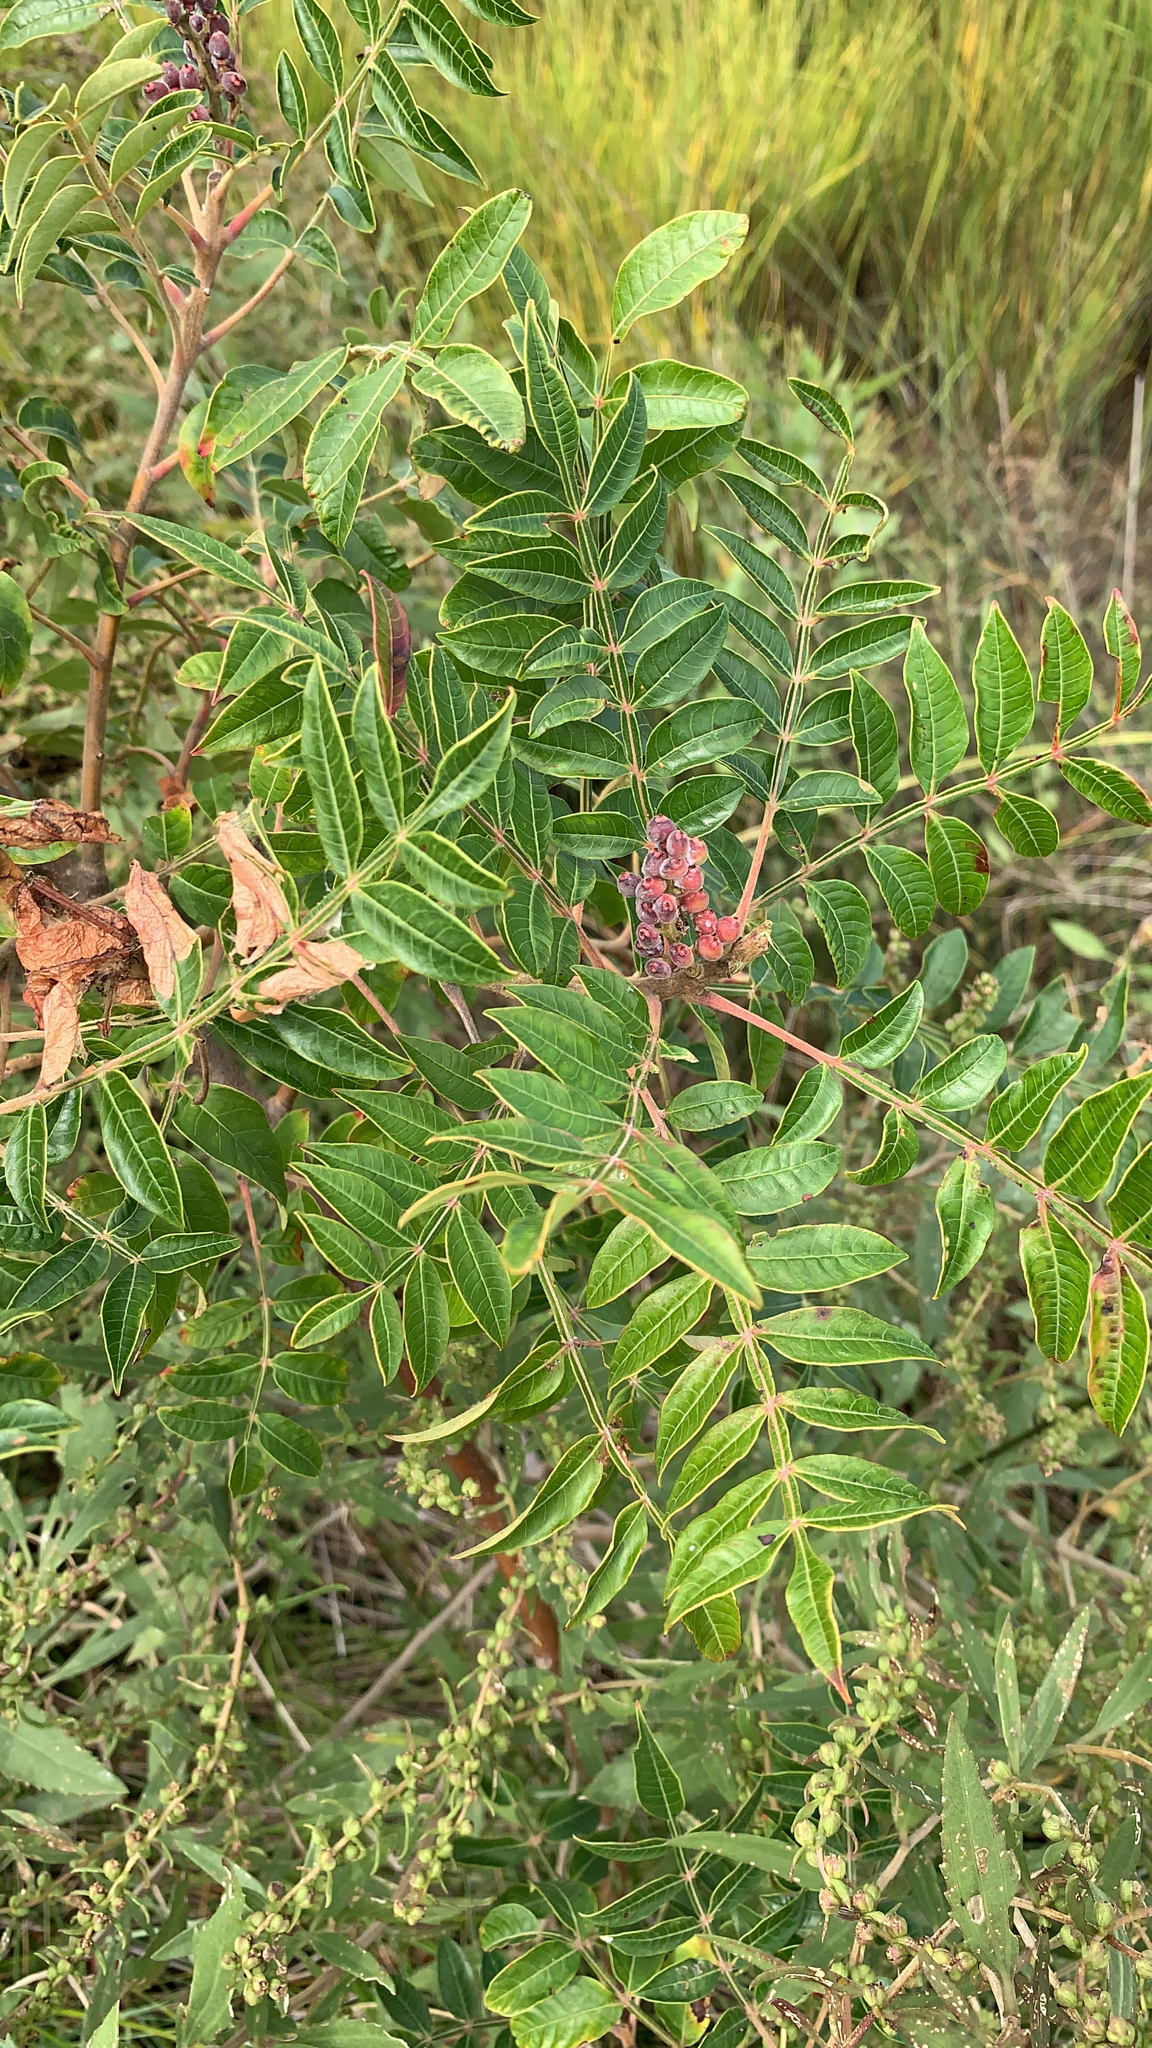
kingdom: Plantae
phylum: Tracheophyta
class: Magnoliopsida
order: Sapindales
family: Anacardiaceae
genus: Rhus
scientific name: Rhus copallina
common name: Shining sumac
